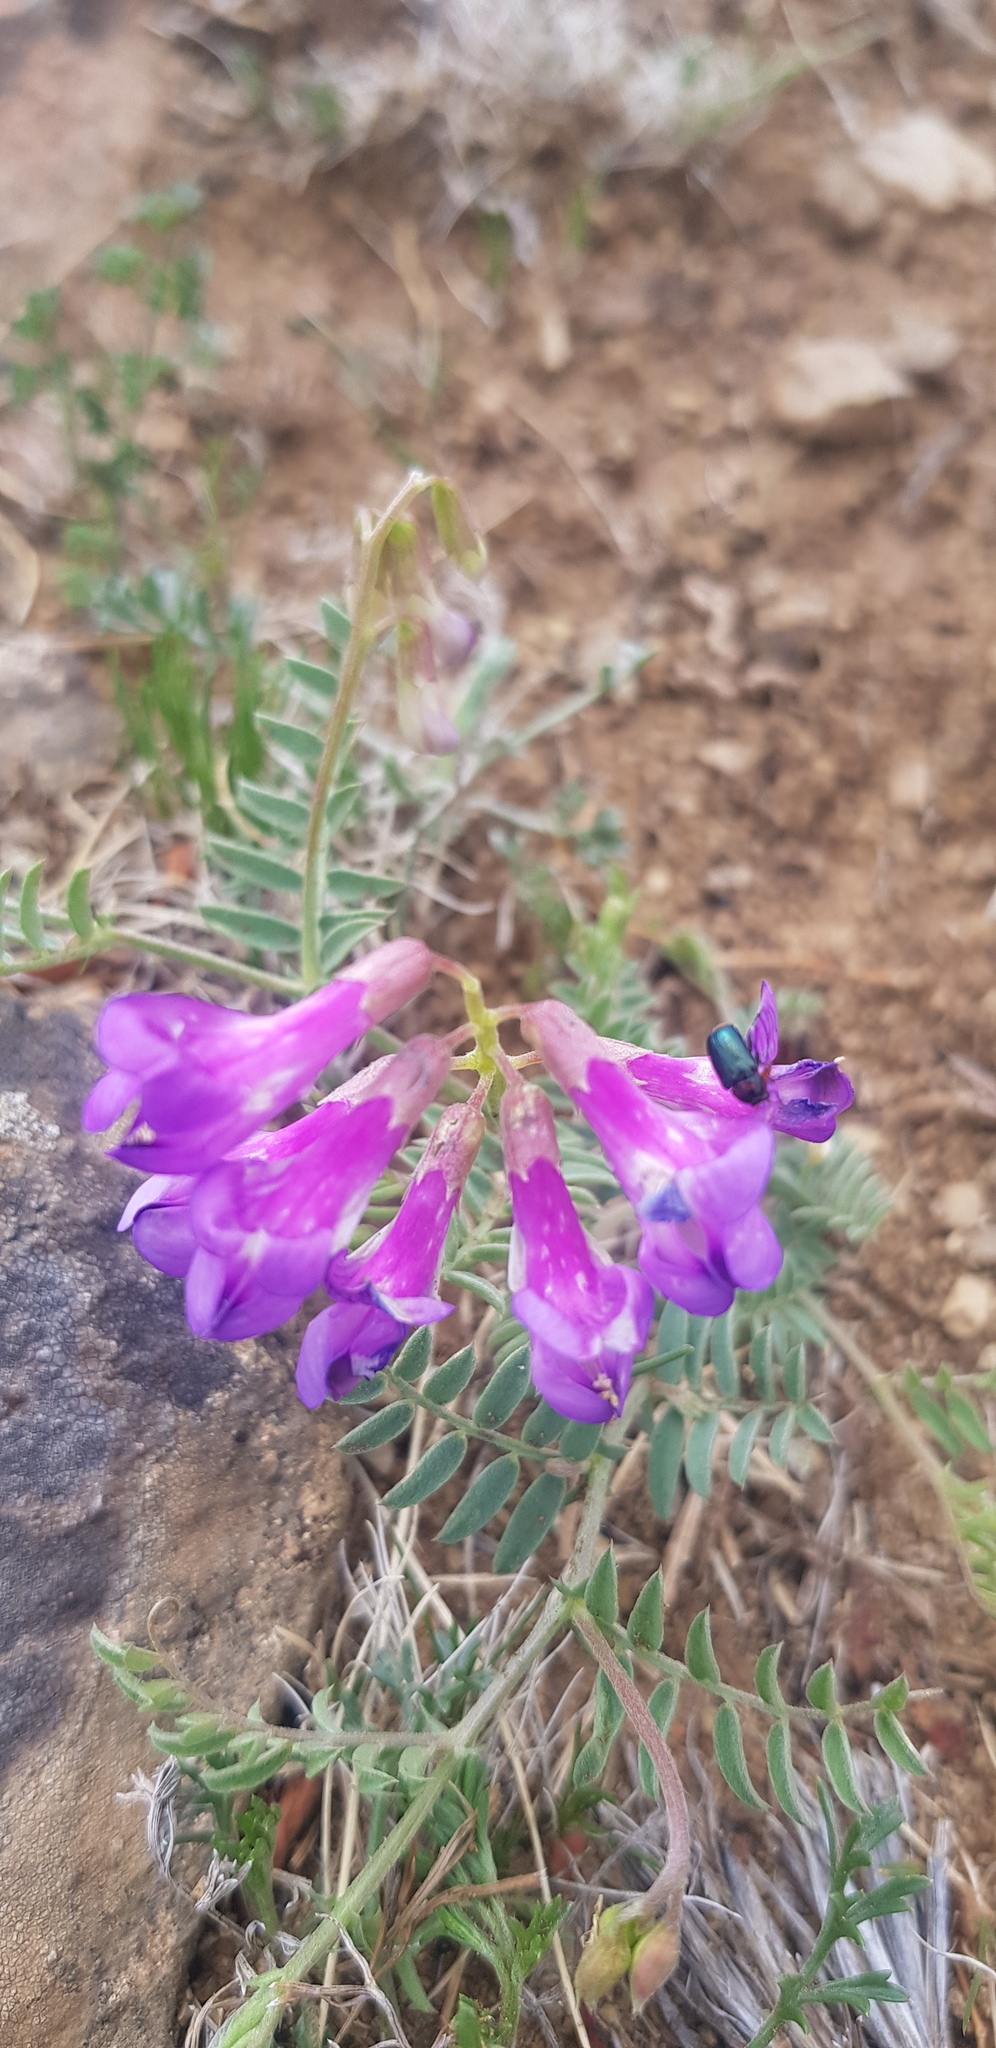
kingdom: Plantae
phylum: Tracheophyta
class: Magnoliopsida
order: Fabales
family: Fabaceae
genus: Astragalus
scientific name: Astragalus davuricus
